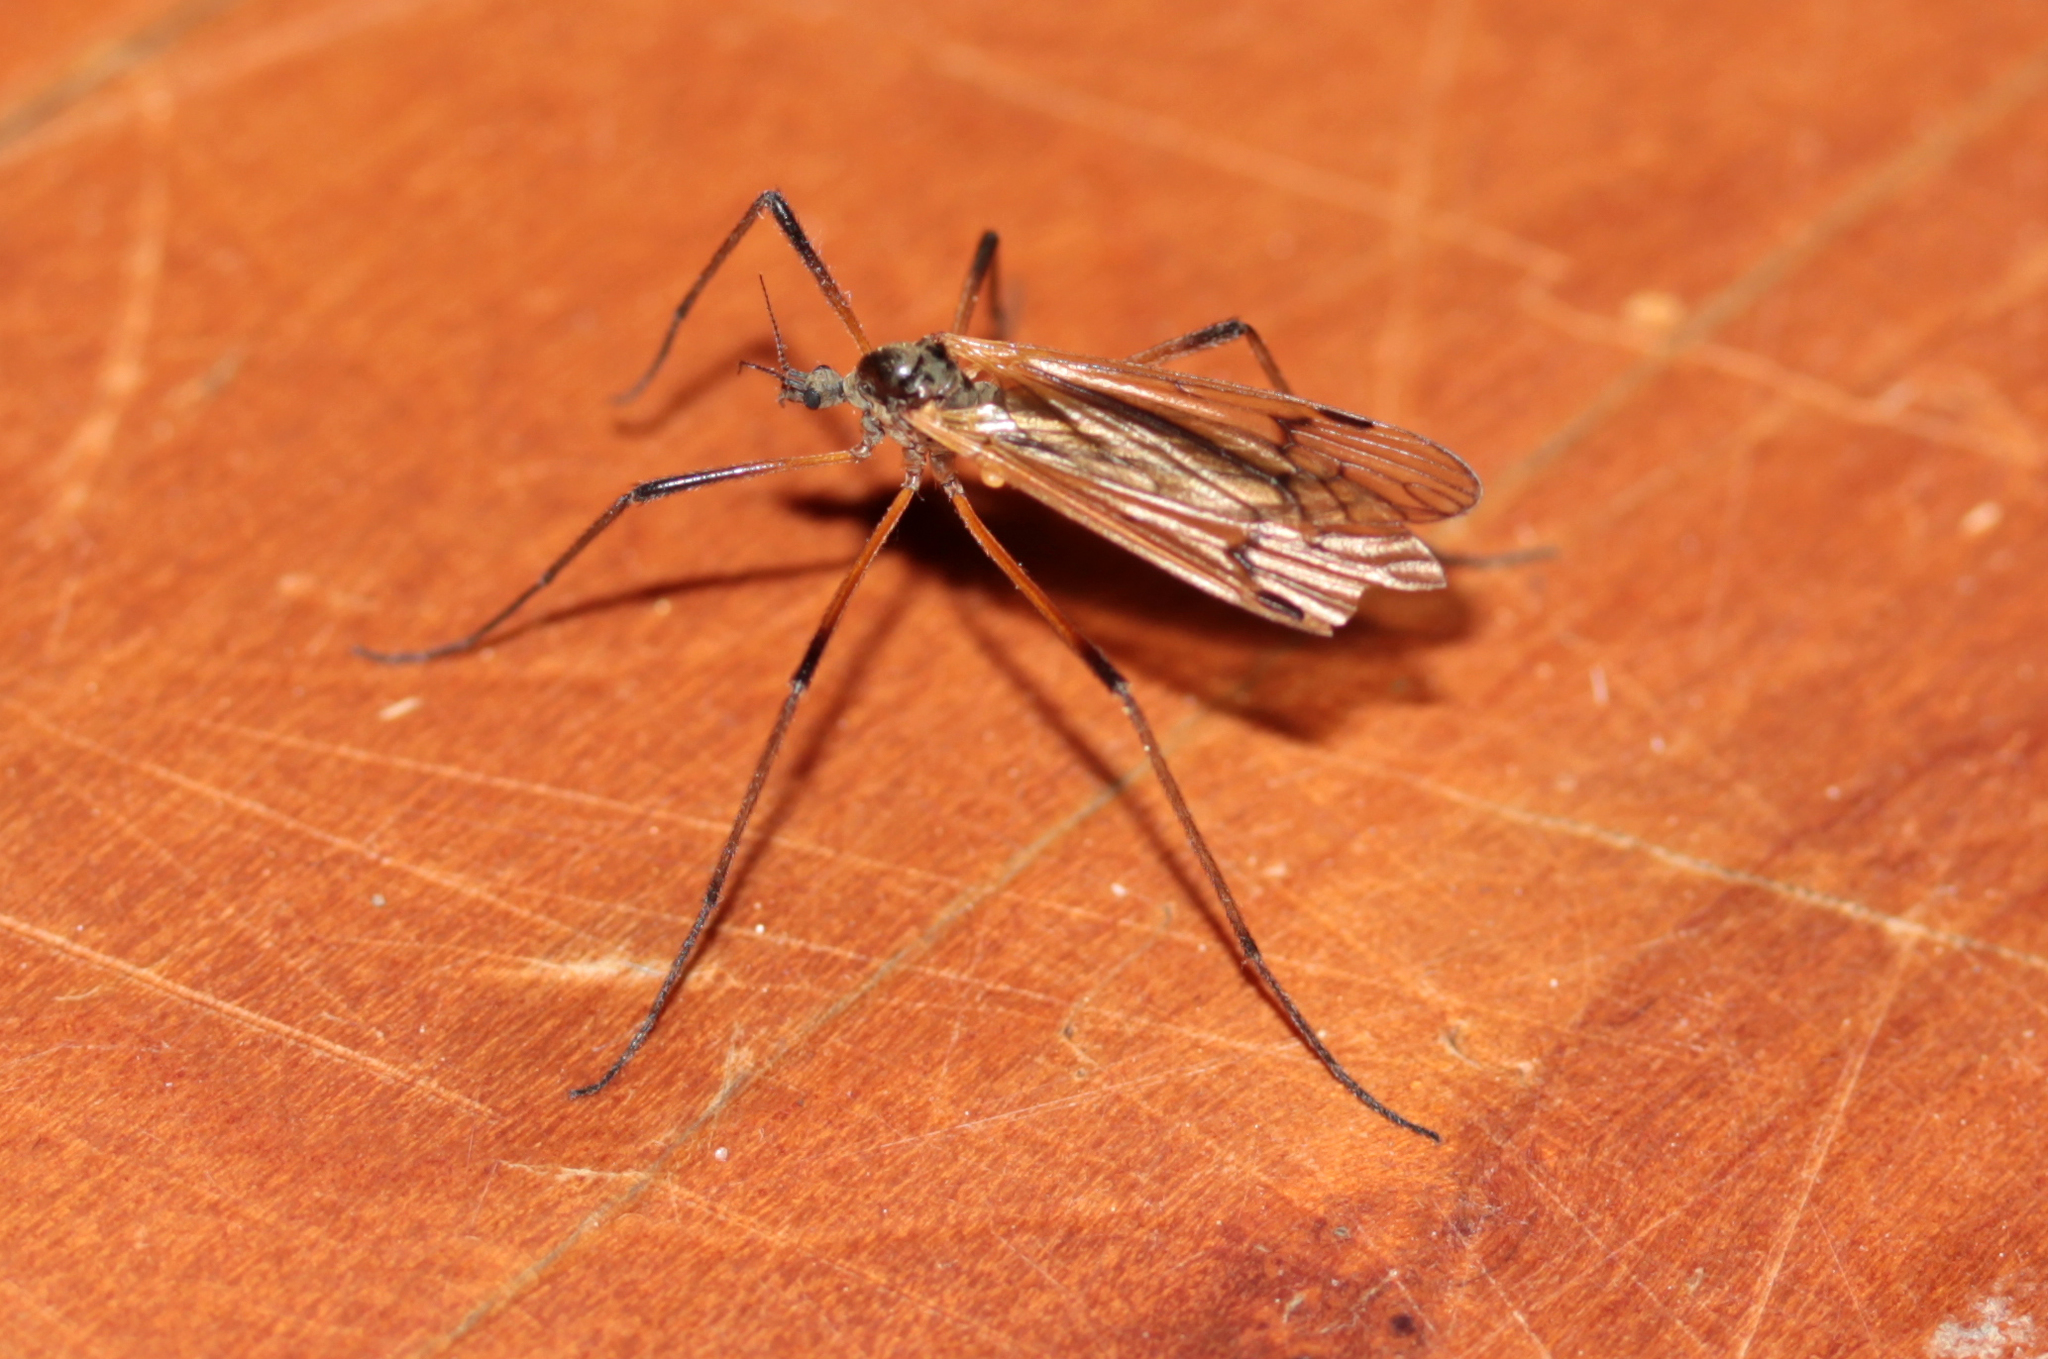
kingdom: Animalia
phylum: Arthropoda
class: Insecta
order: Diptera
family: Limoniidae
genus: Prionolabis
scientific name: Prionolabis rufibasis
